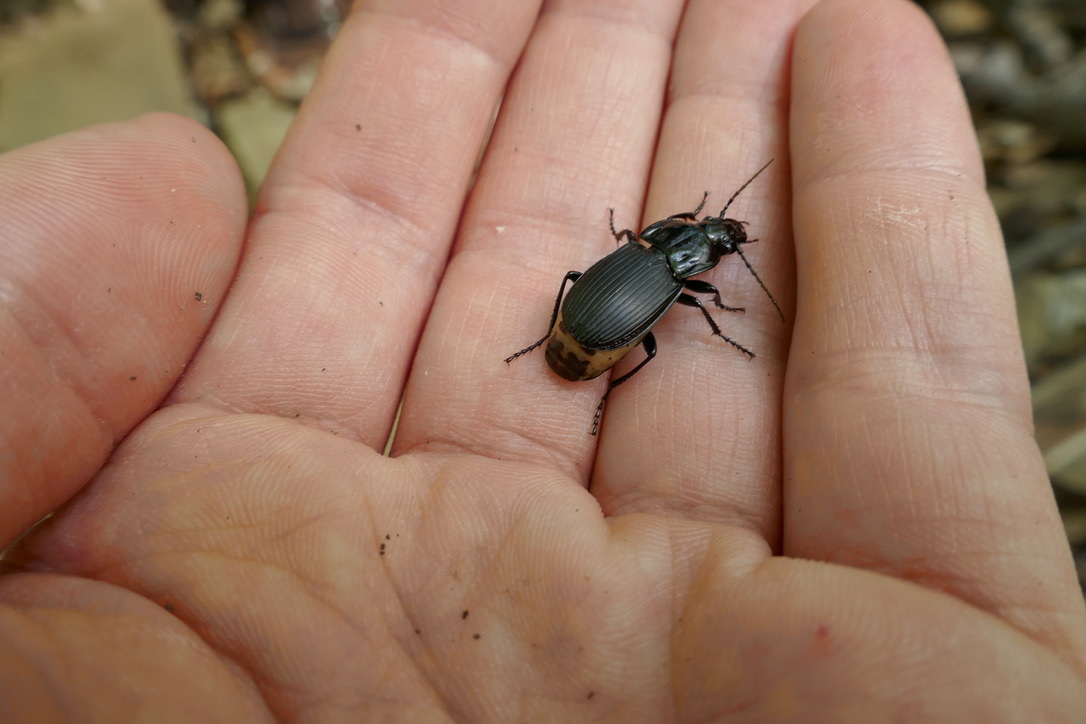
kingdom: Animalia
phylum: Arthropoda
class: Insecta
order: Coleoptera
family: Carabidae
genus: Abax
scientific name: Abax parallelepipedus
